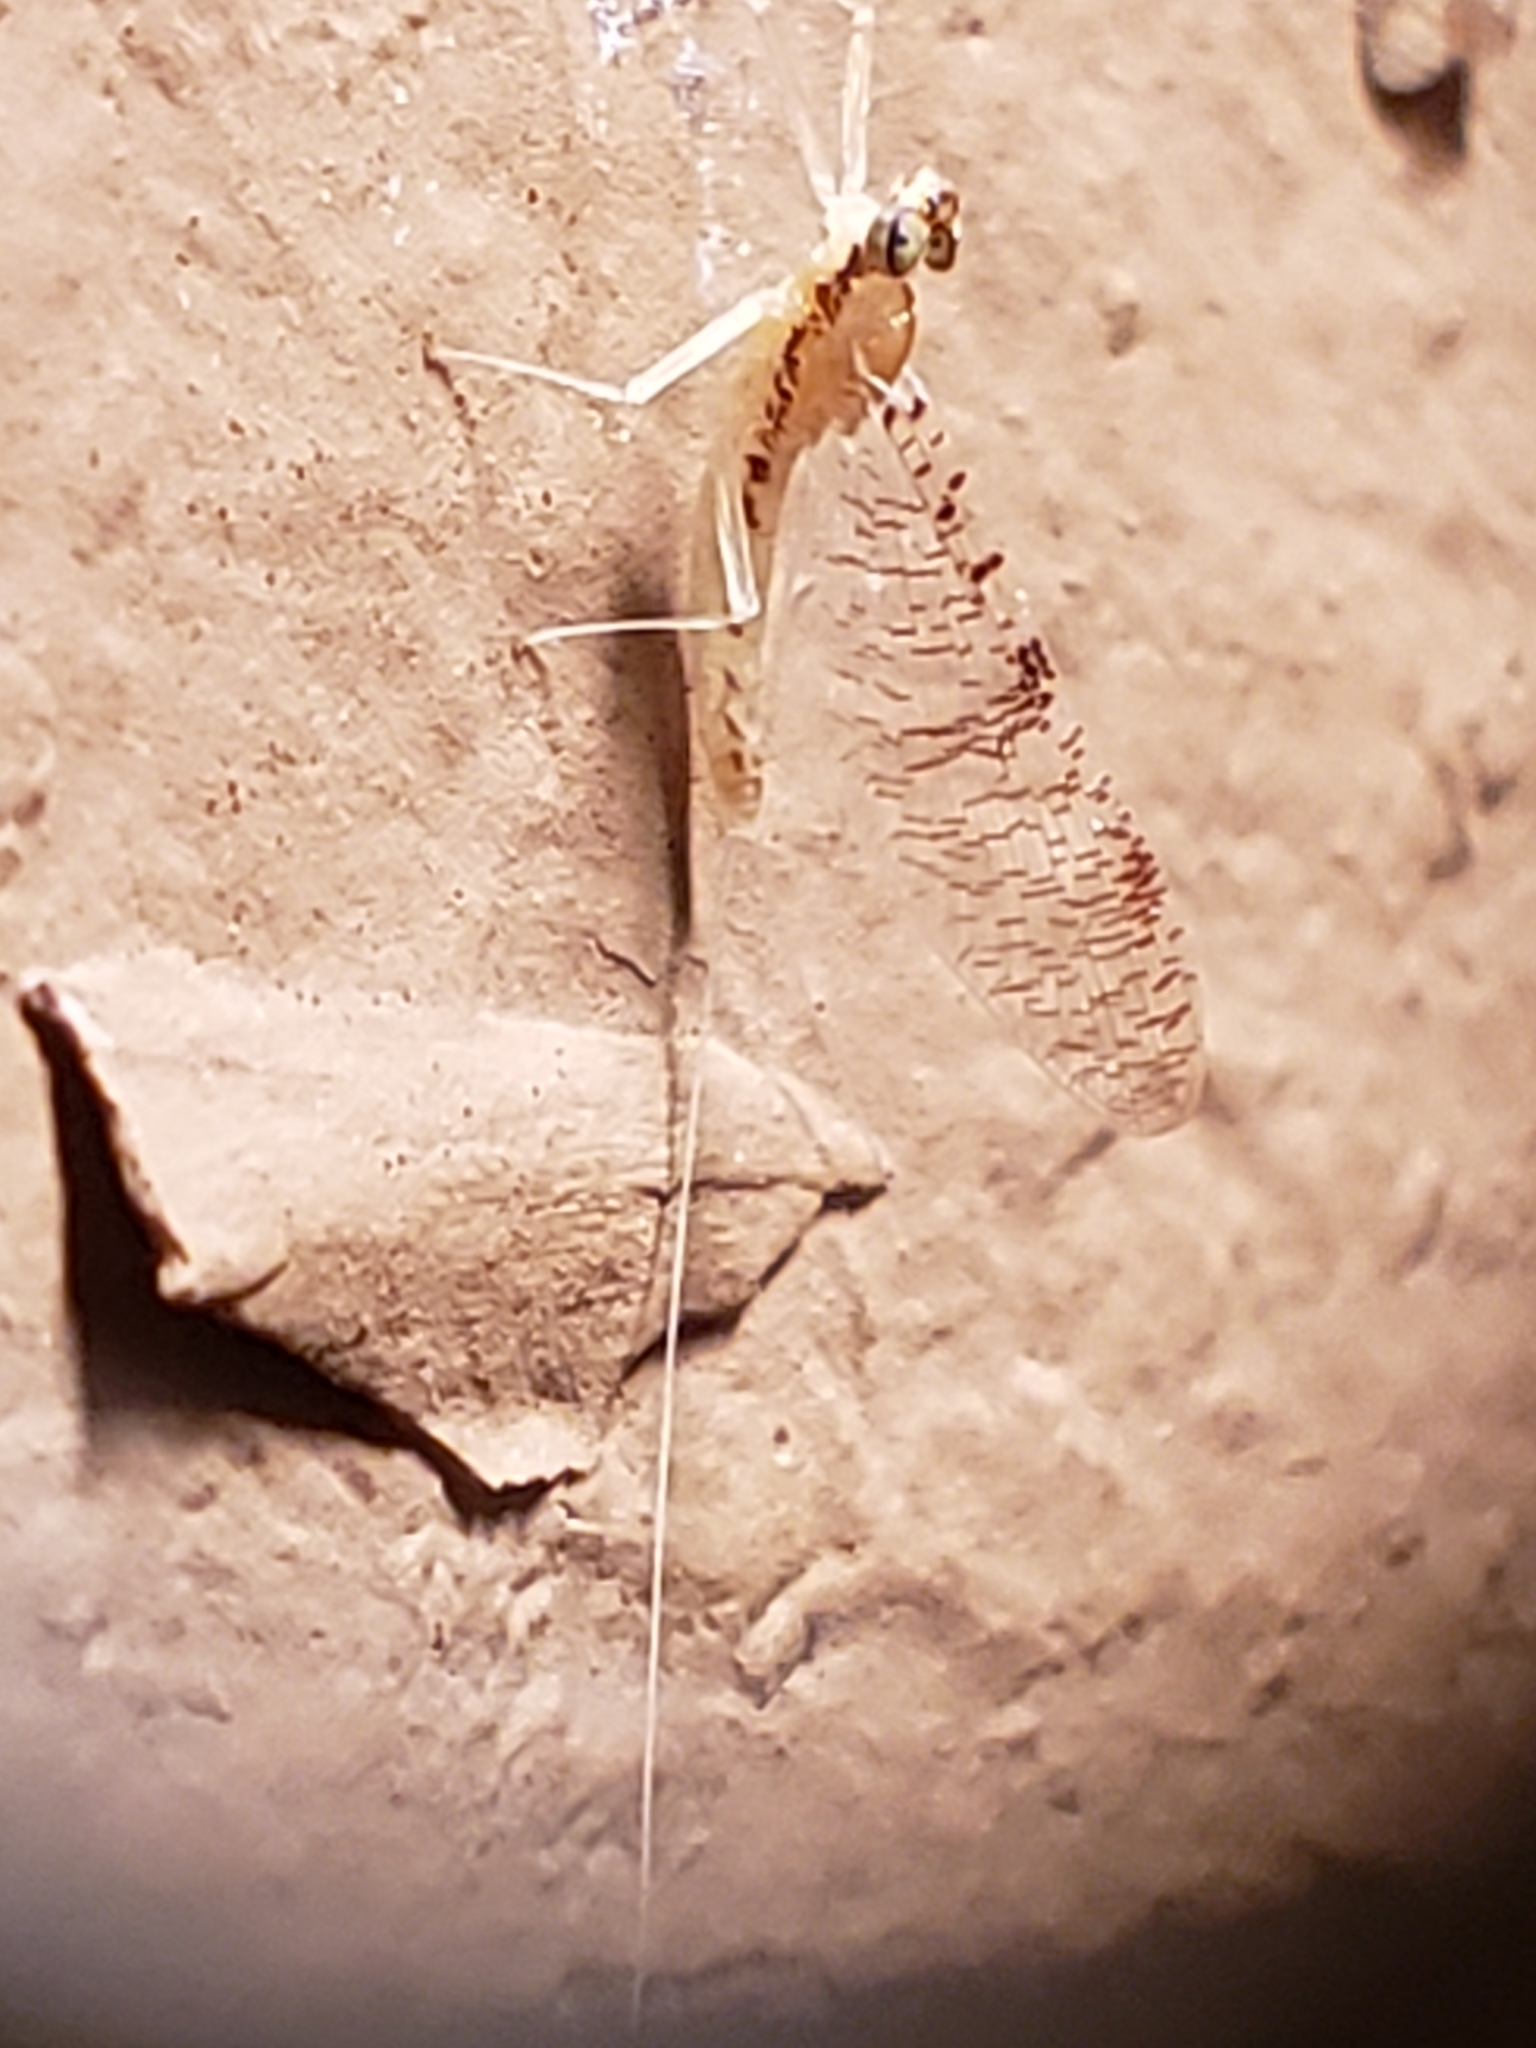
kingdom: Animalia
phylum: Arthropoda
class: Insecta
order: Ephemeroptera
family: Heptageniidae
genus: Leucrocuta
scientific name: Leucrocuta minerva
